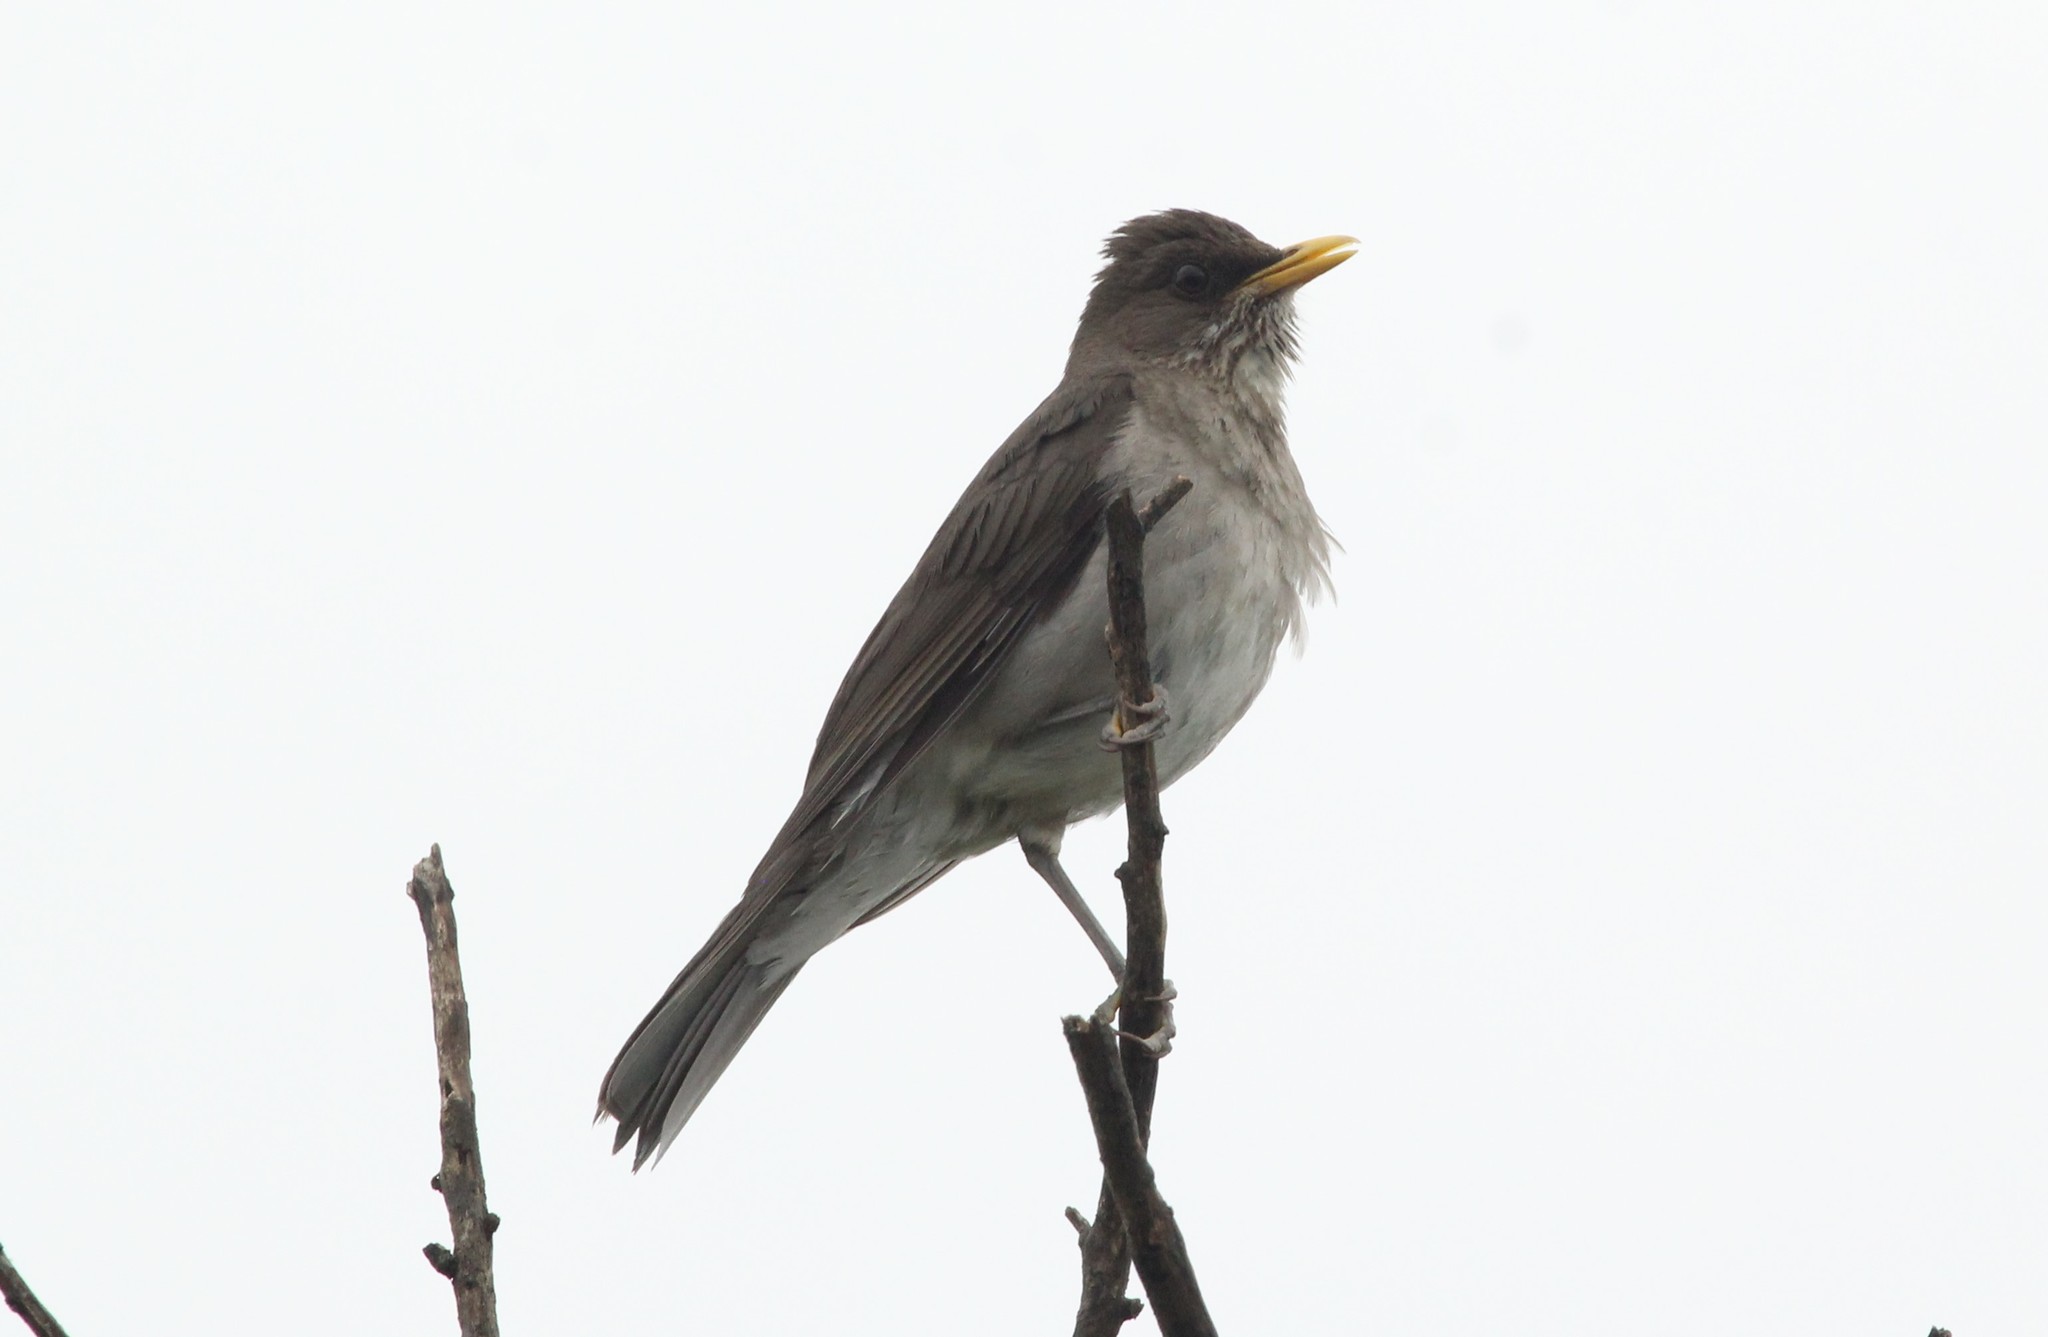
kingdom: Animalia
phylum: Chordata
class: Aves
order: Passeriformes
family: Turdidae
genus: Turdus
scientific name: Turdus amaurochalinus
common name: Creamy-bellied thrush
